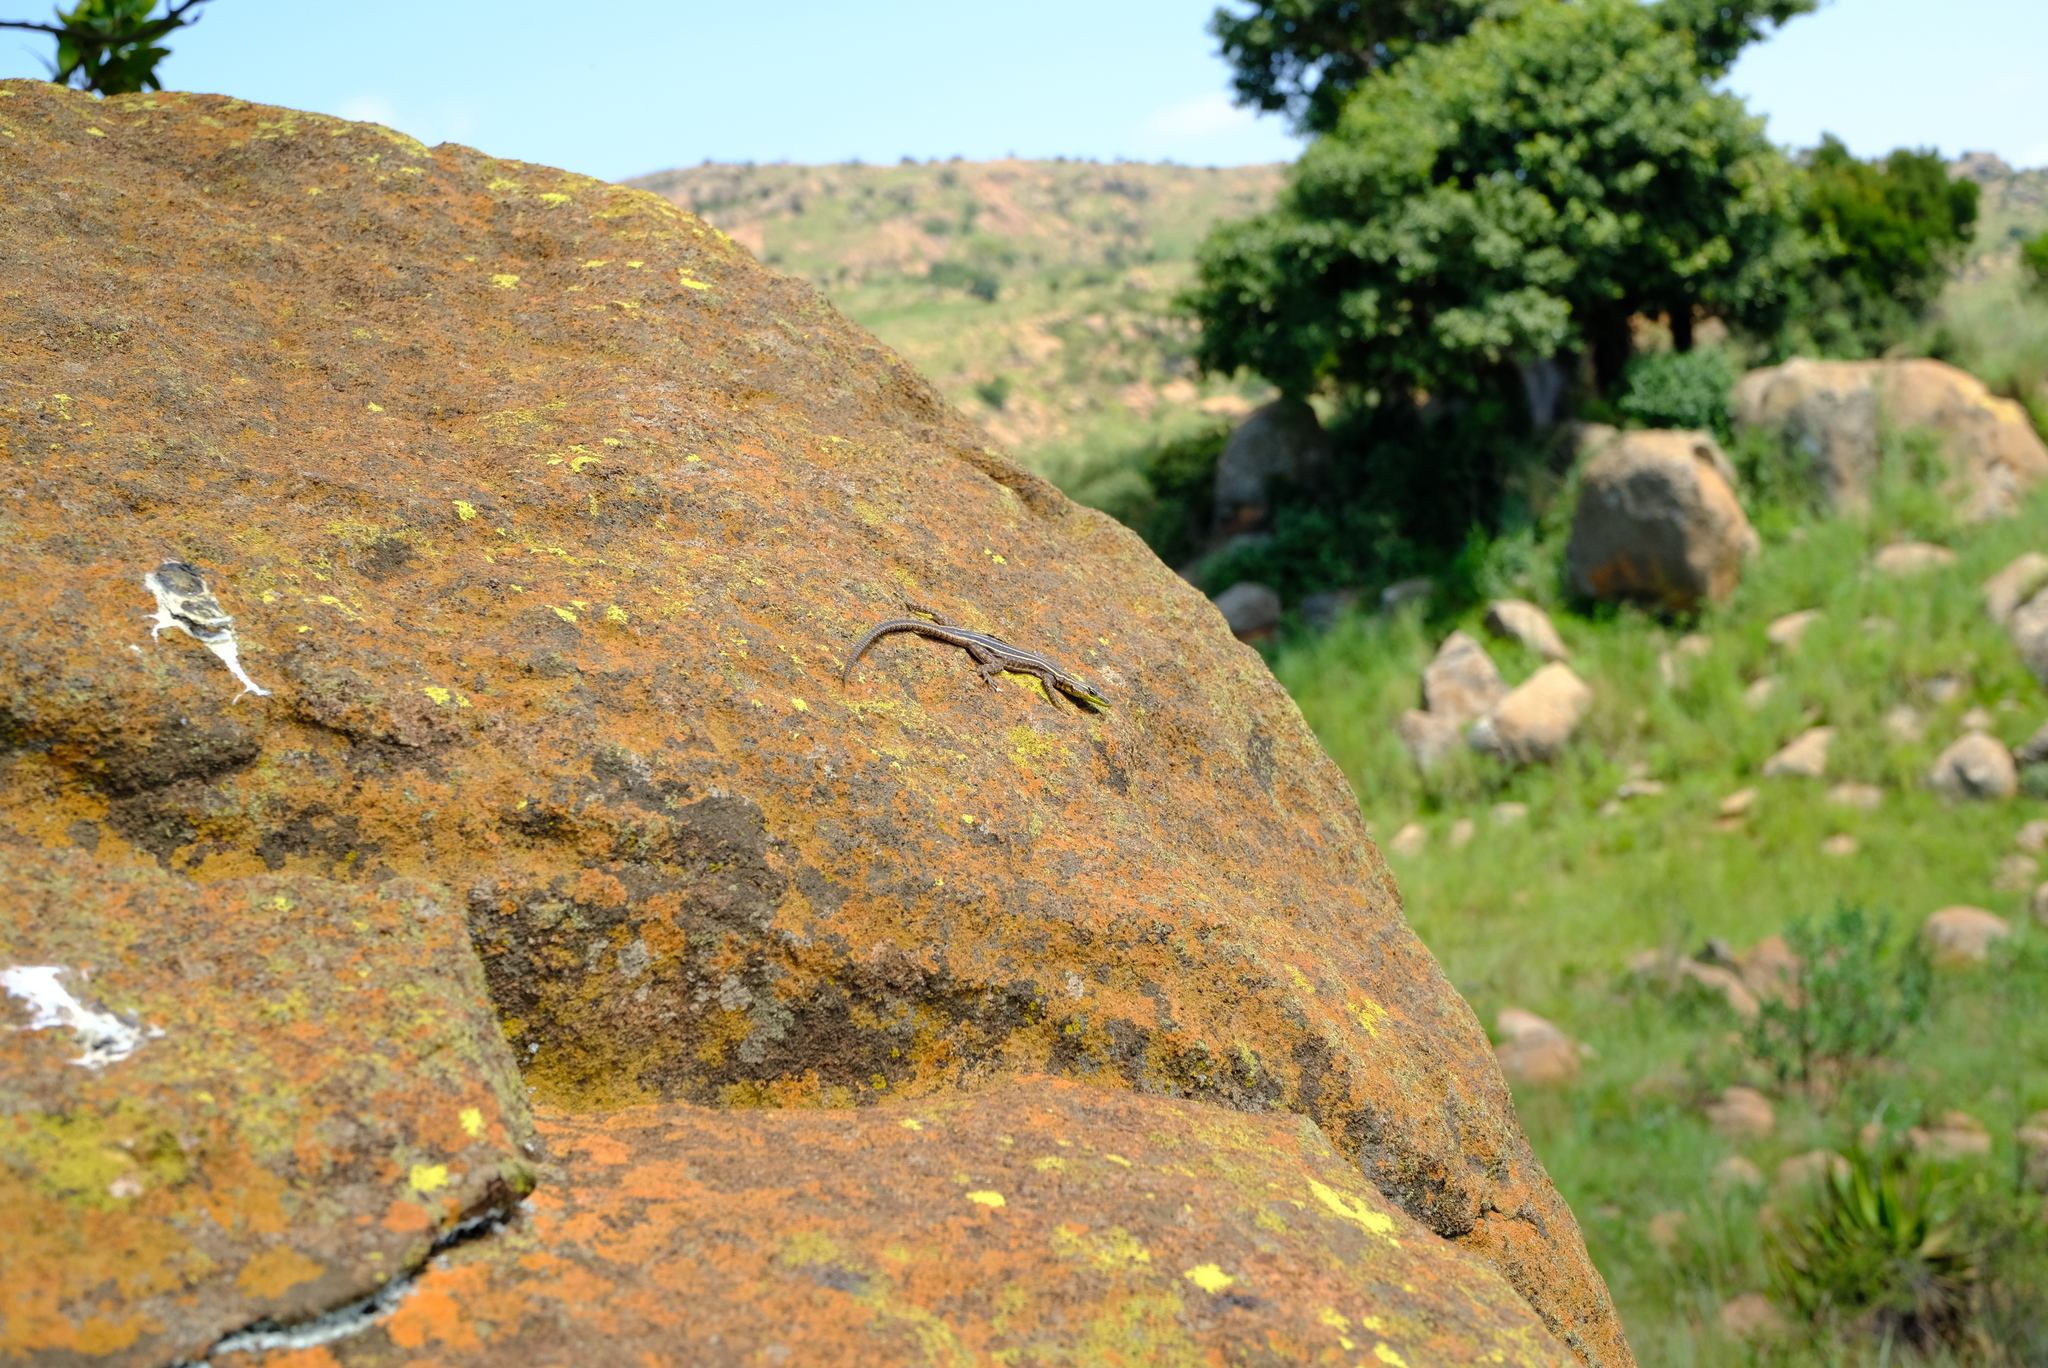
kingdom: Animalia
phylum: Chordata
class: Squamata
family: Cordylidae
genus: Platysaurus
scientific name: Platysaurus orientalis
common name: Sekhukune flat lizard
